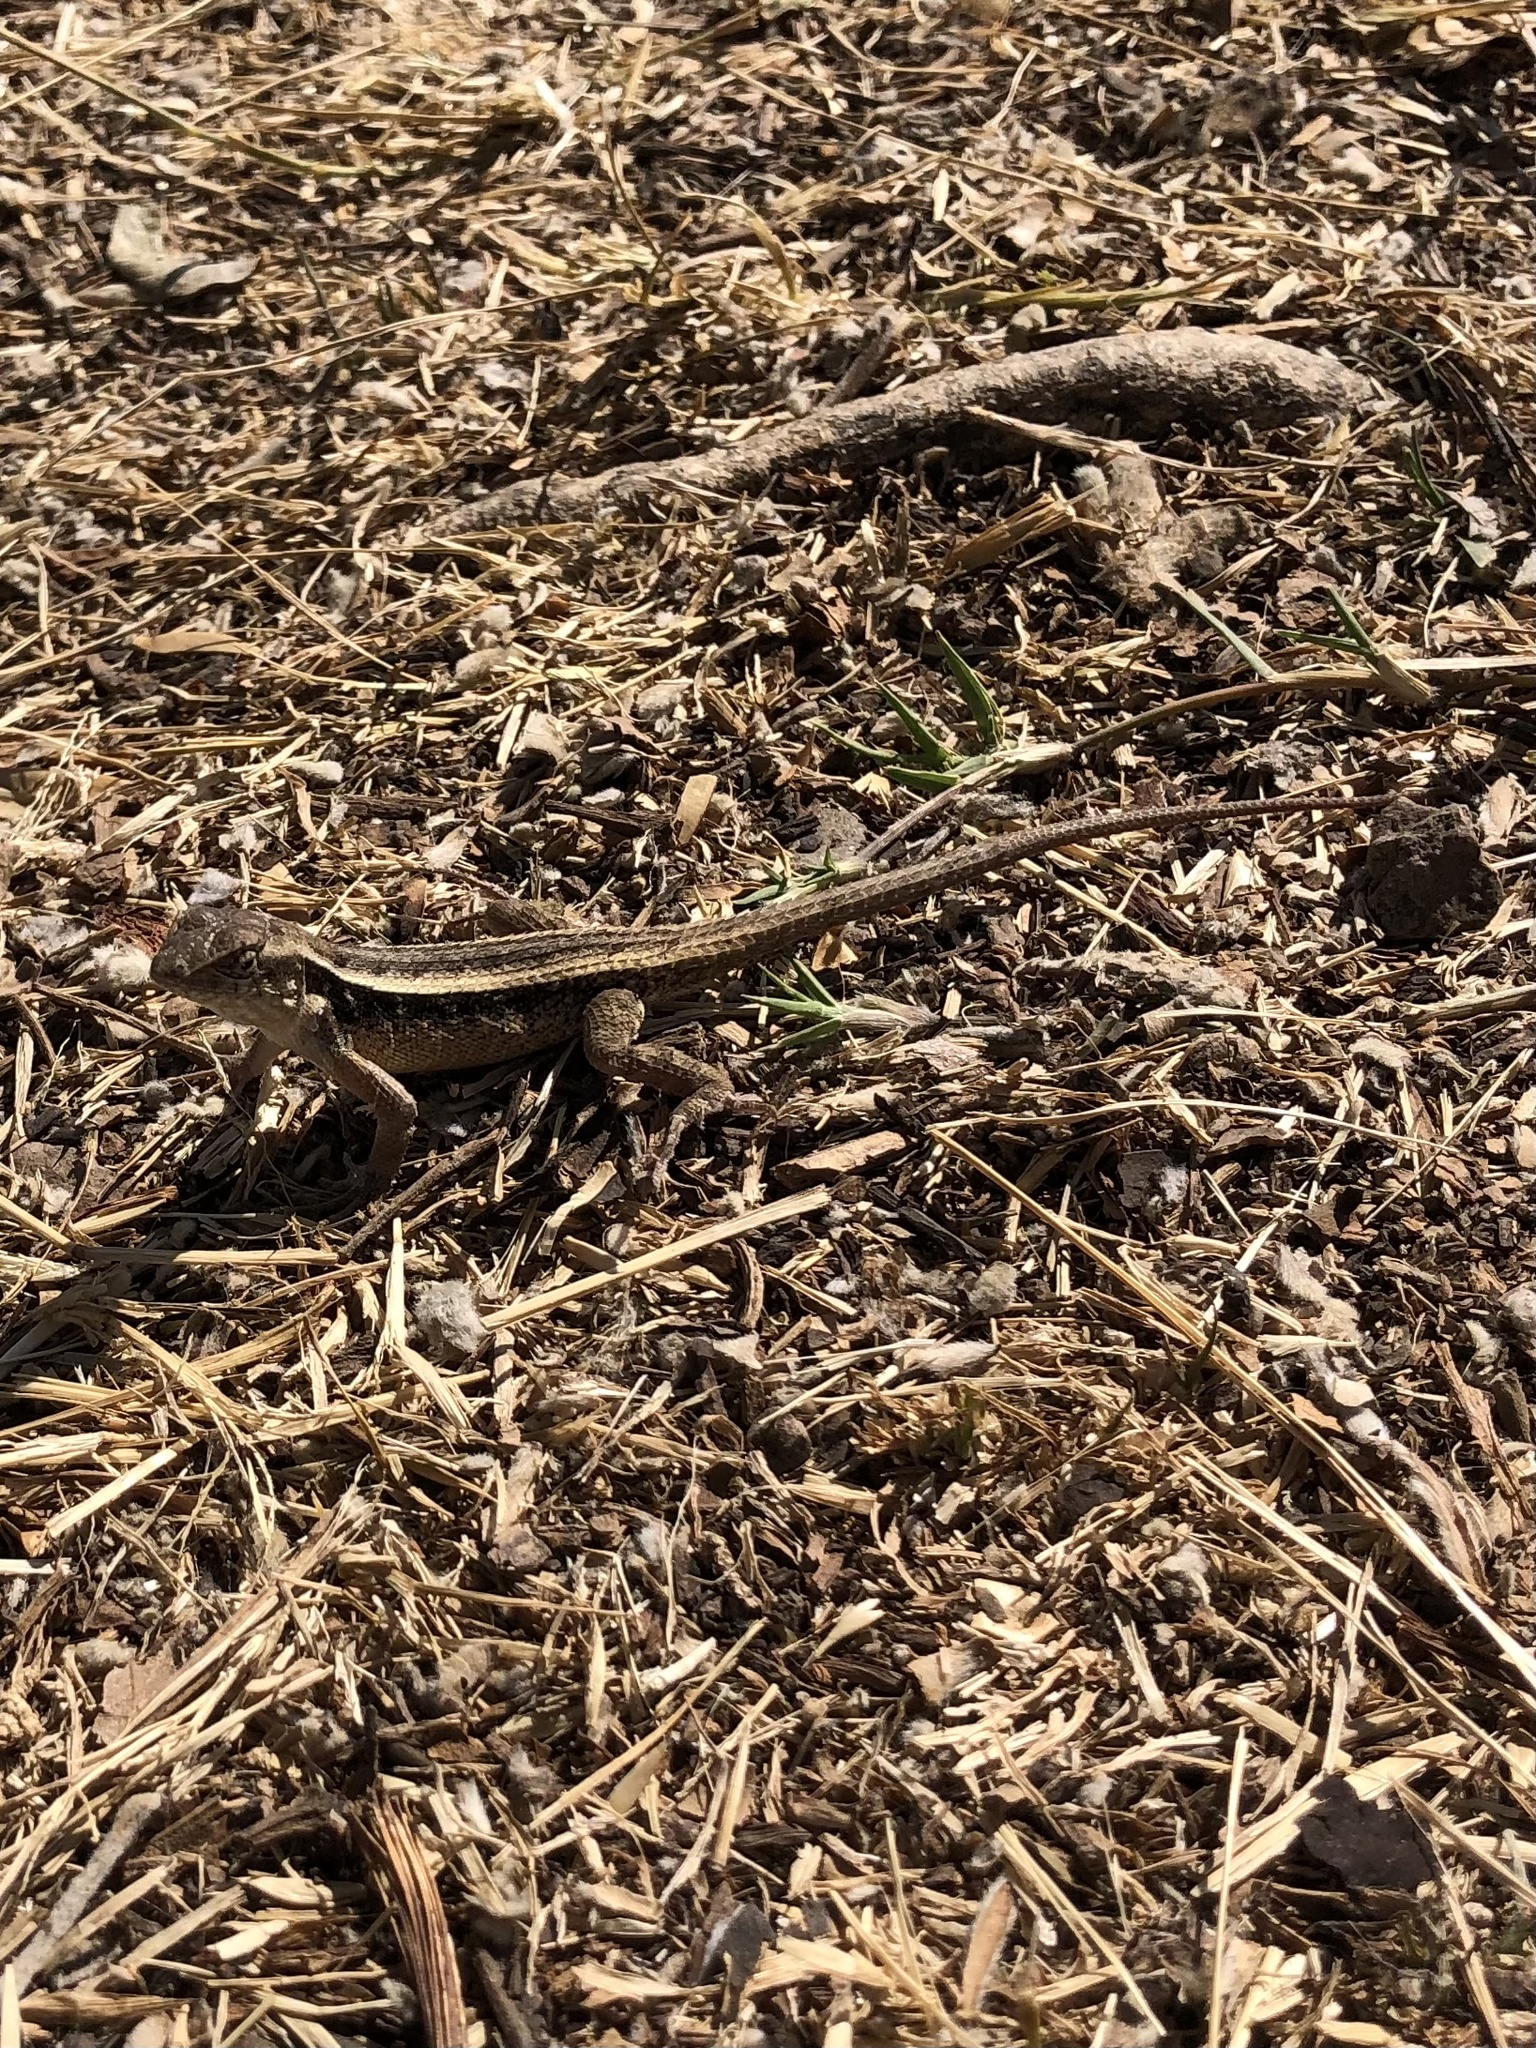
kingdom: Animalia
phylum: Chordata
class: Squamata
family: Phrynosomatidae
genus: Sceloporus
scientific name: Sceloporus siniferus
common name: Longtail spiny lizard
